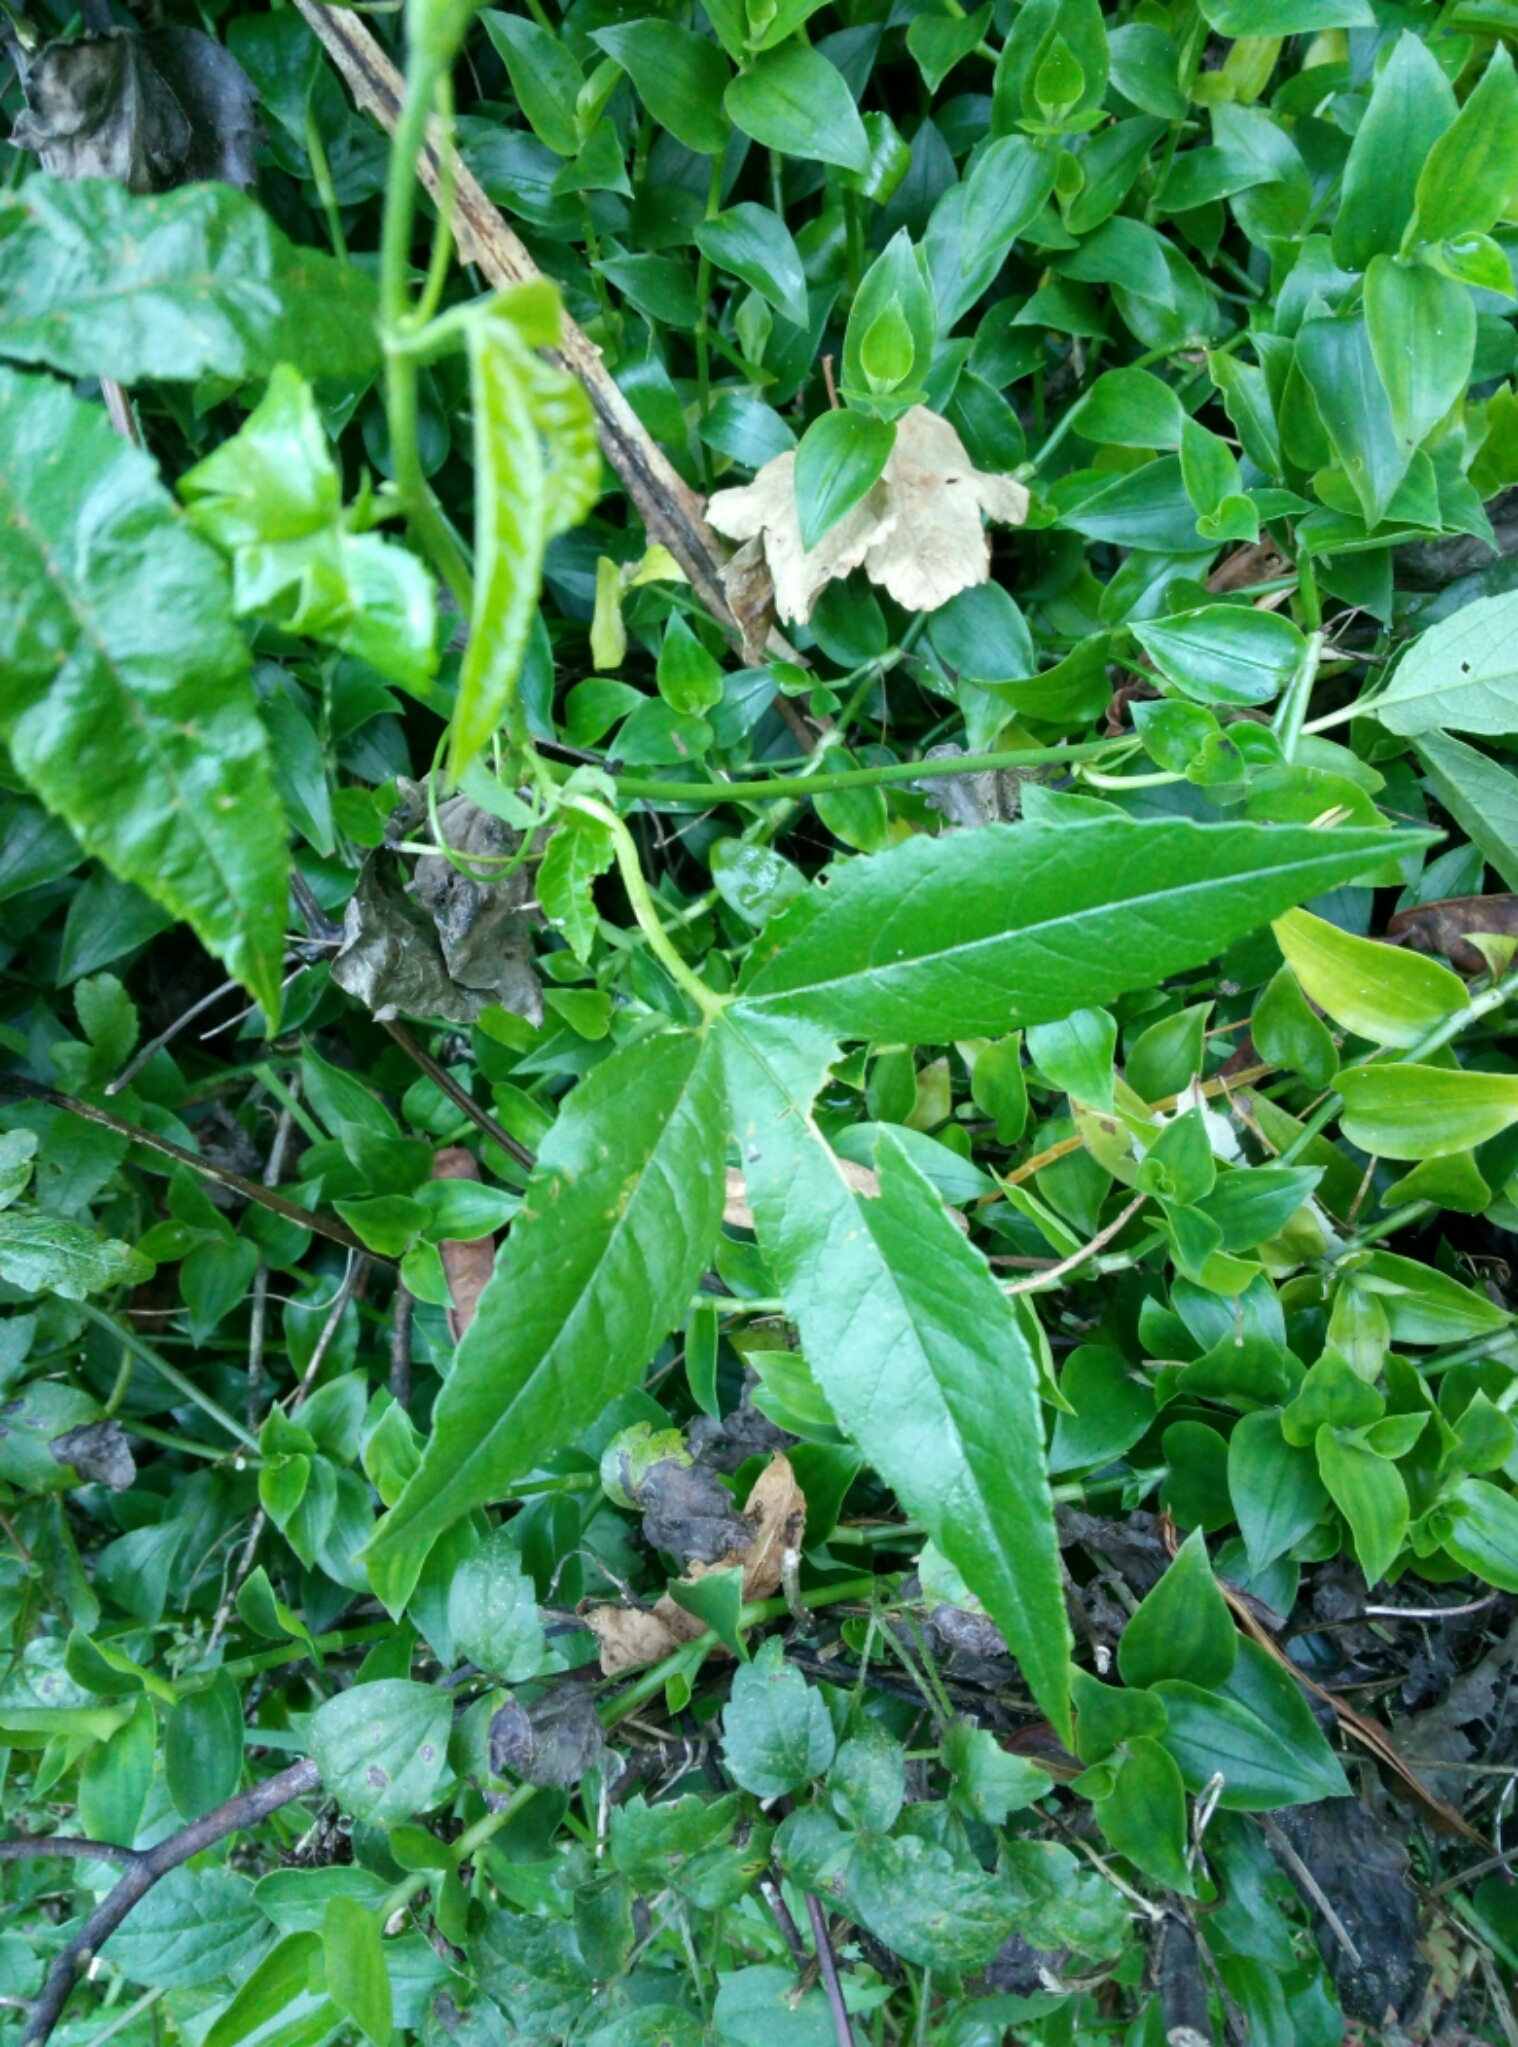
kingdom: Plantae
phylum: Tracheophyta
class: Magnoliopsida
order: Malpighiales
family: Passifloraceae
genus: Passiflora
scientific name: Passiflora tripartita
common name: Banana poka
